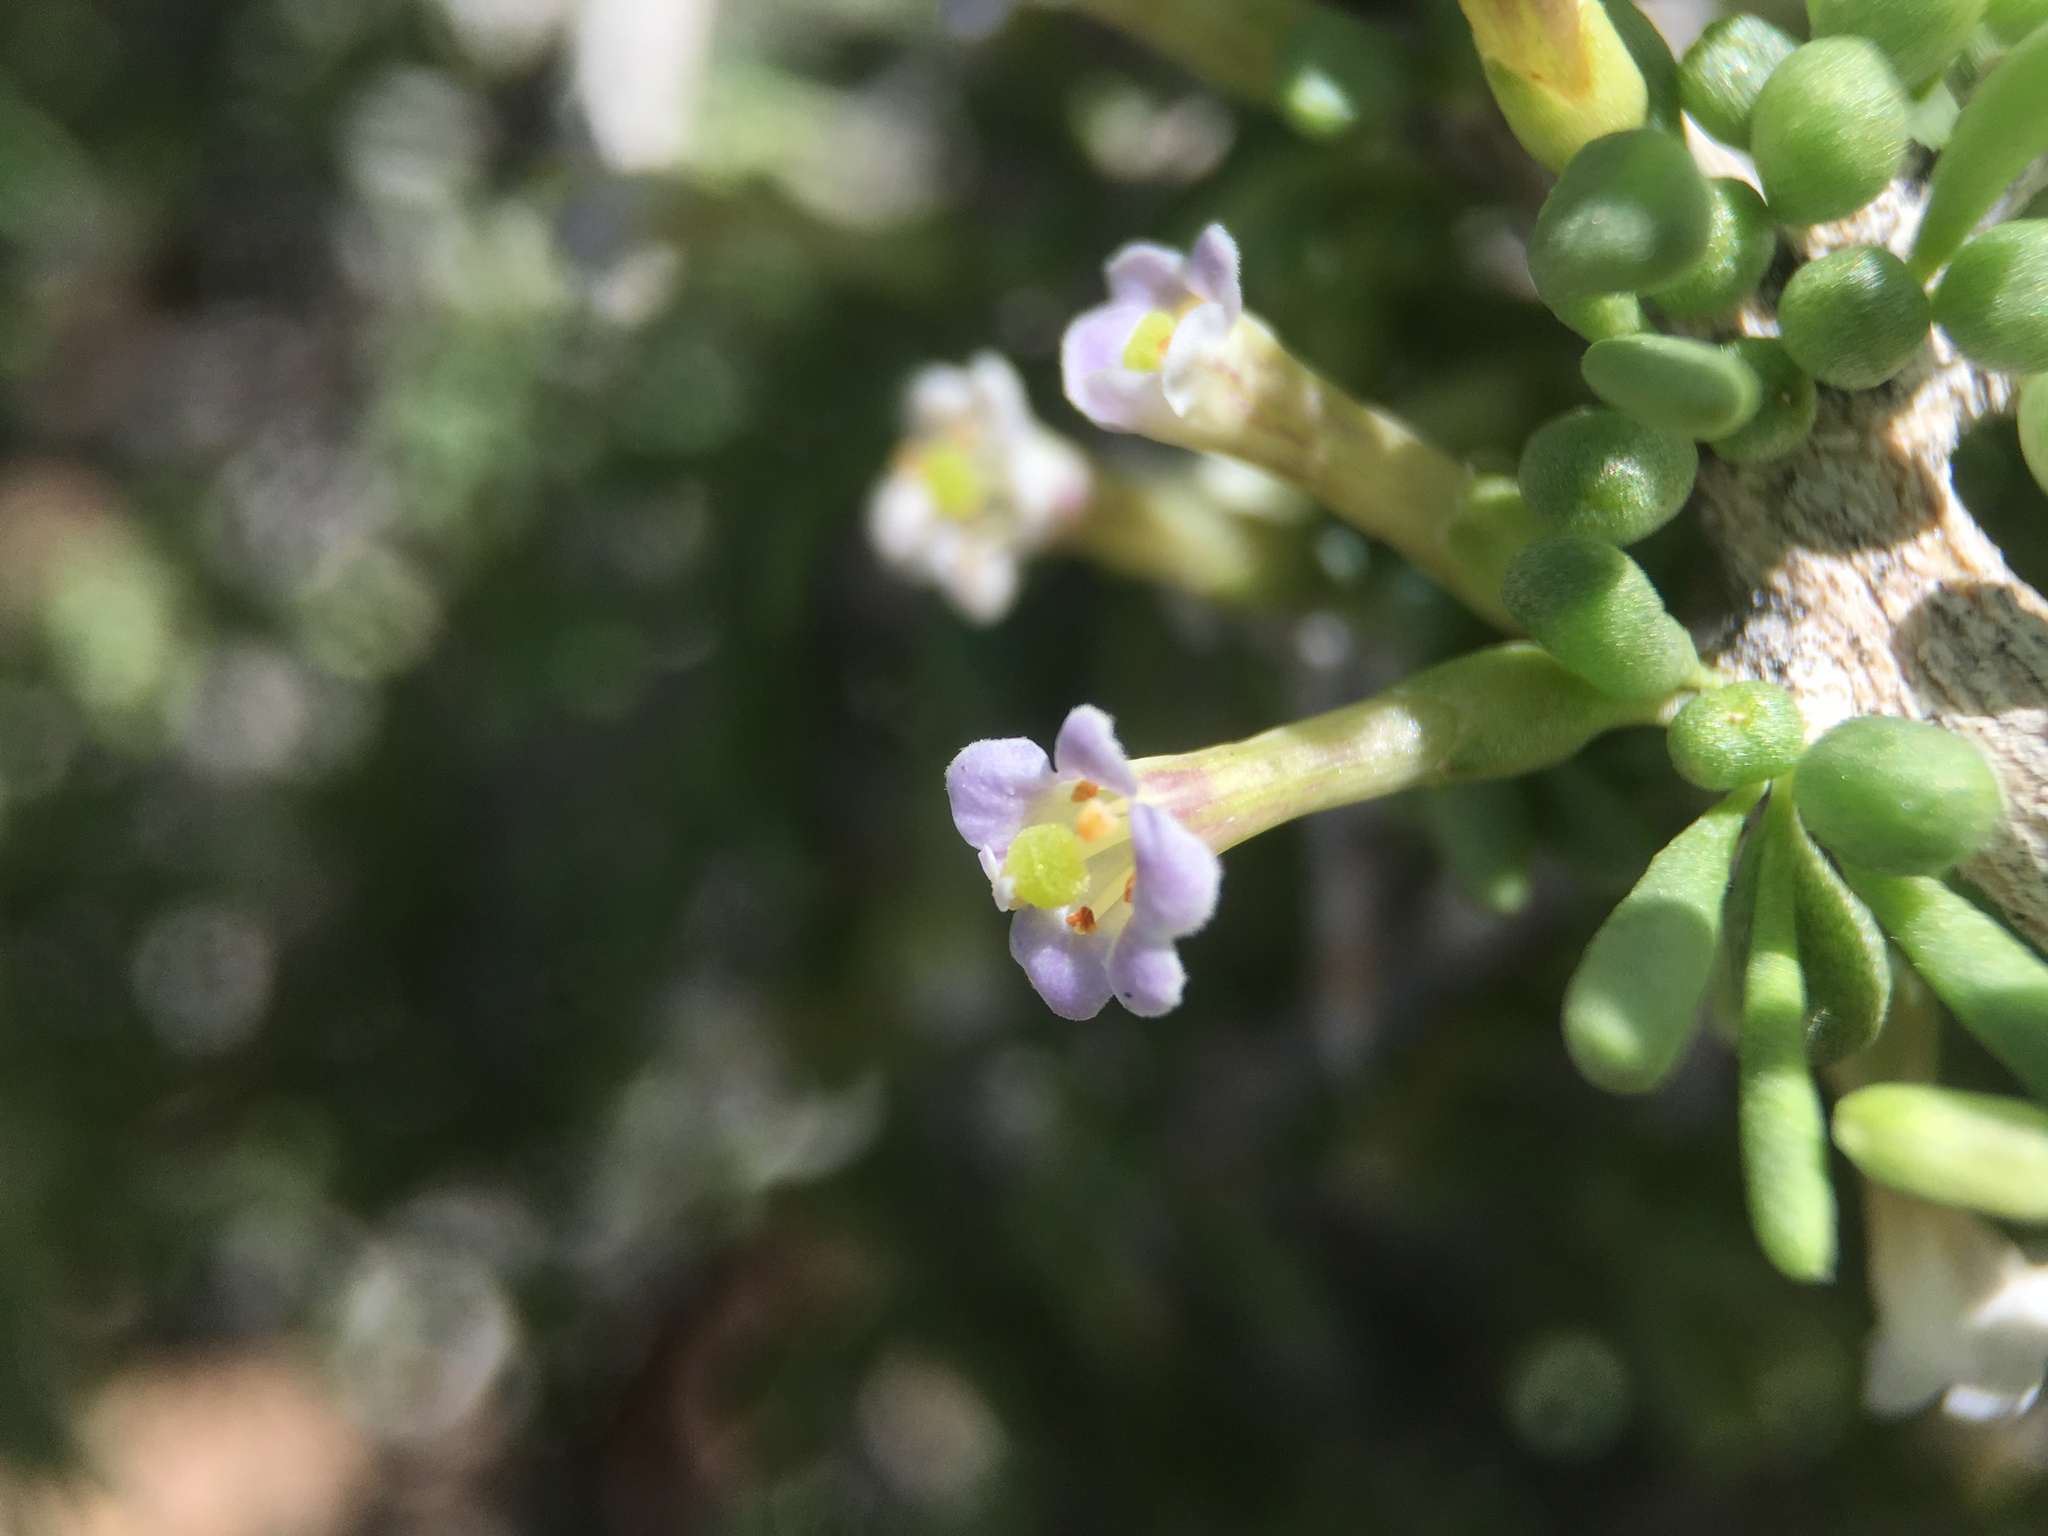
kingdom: Plantae
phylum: Tracheophyta
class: Magnoliopsida
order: Solanales
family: Solanaceae
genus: Lycium
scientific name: Lycium andersonii
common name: Water-jacket
